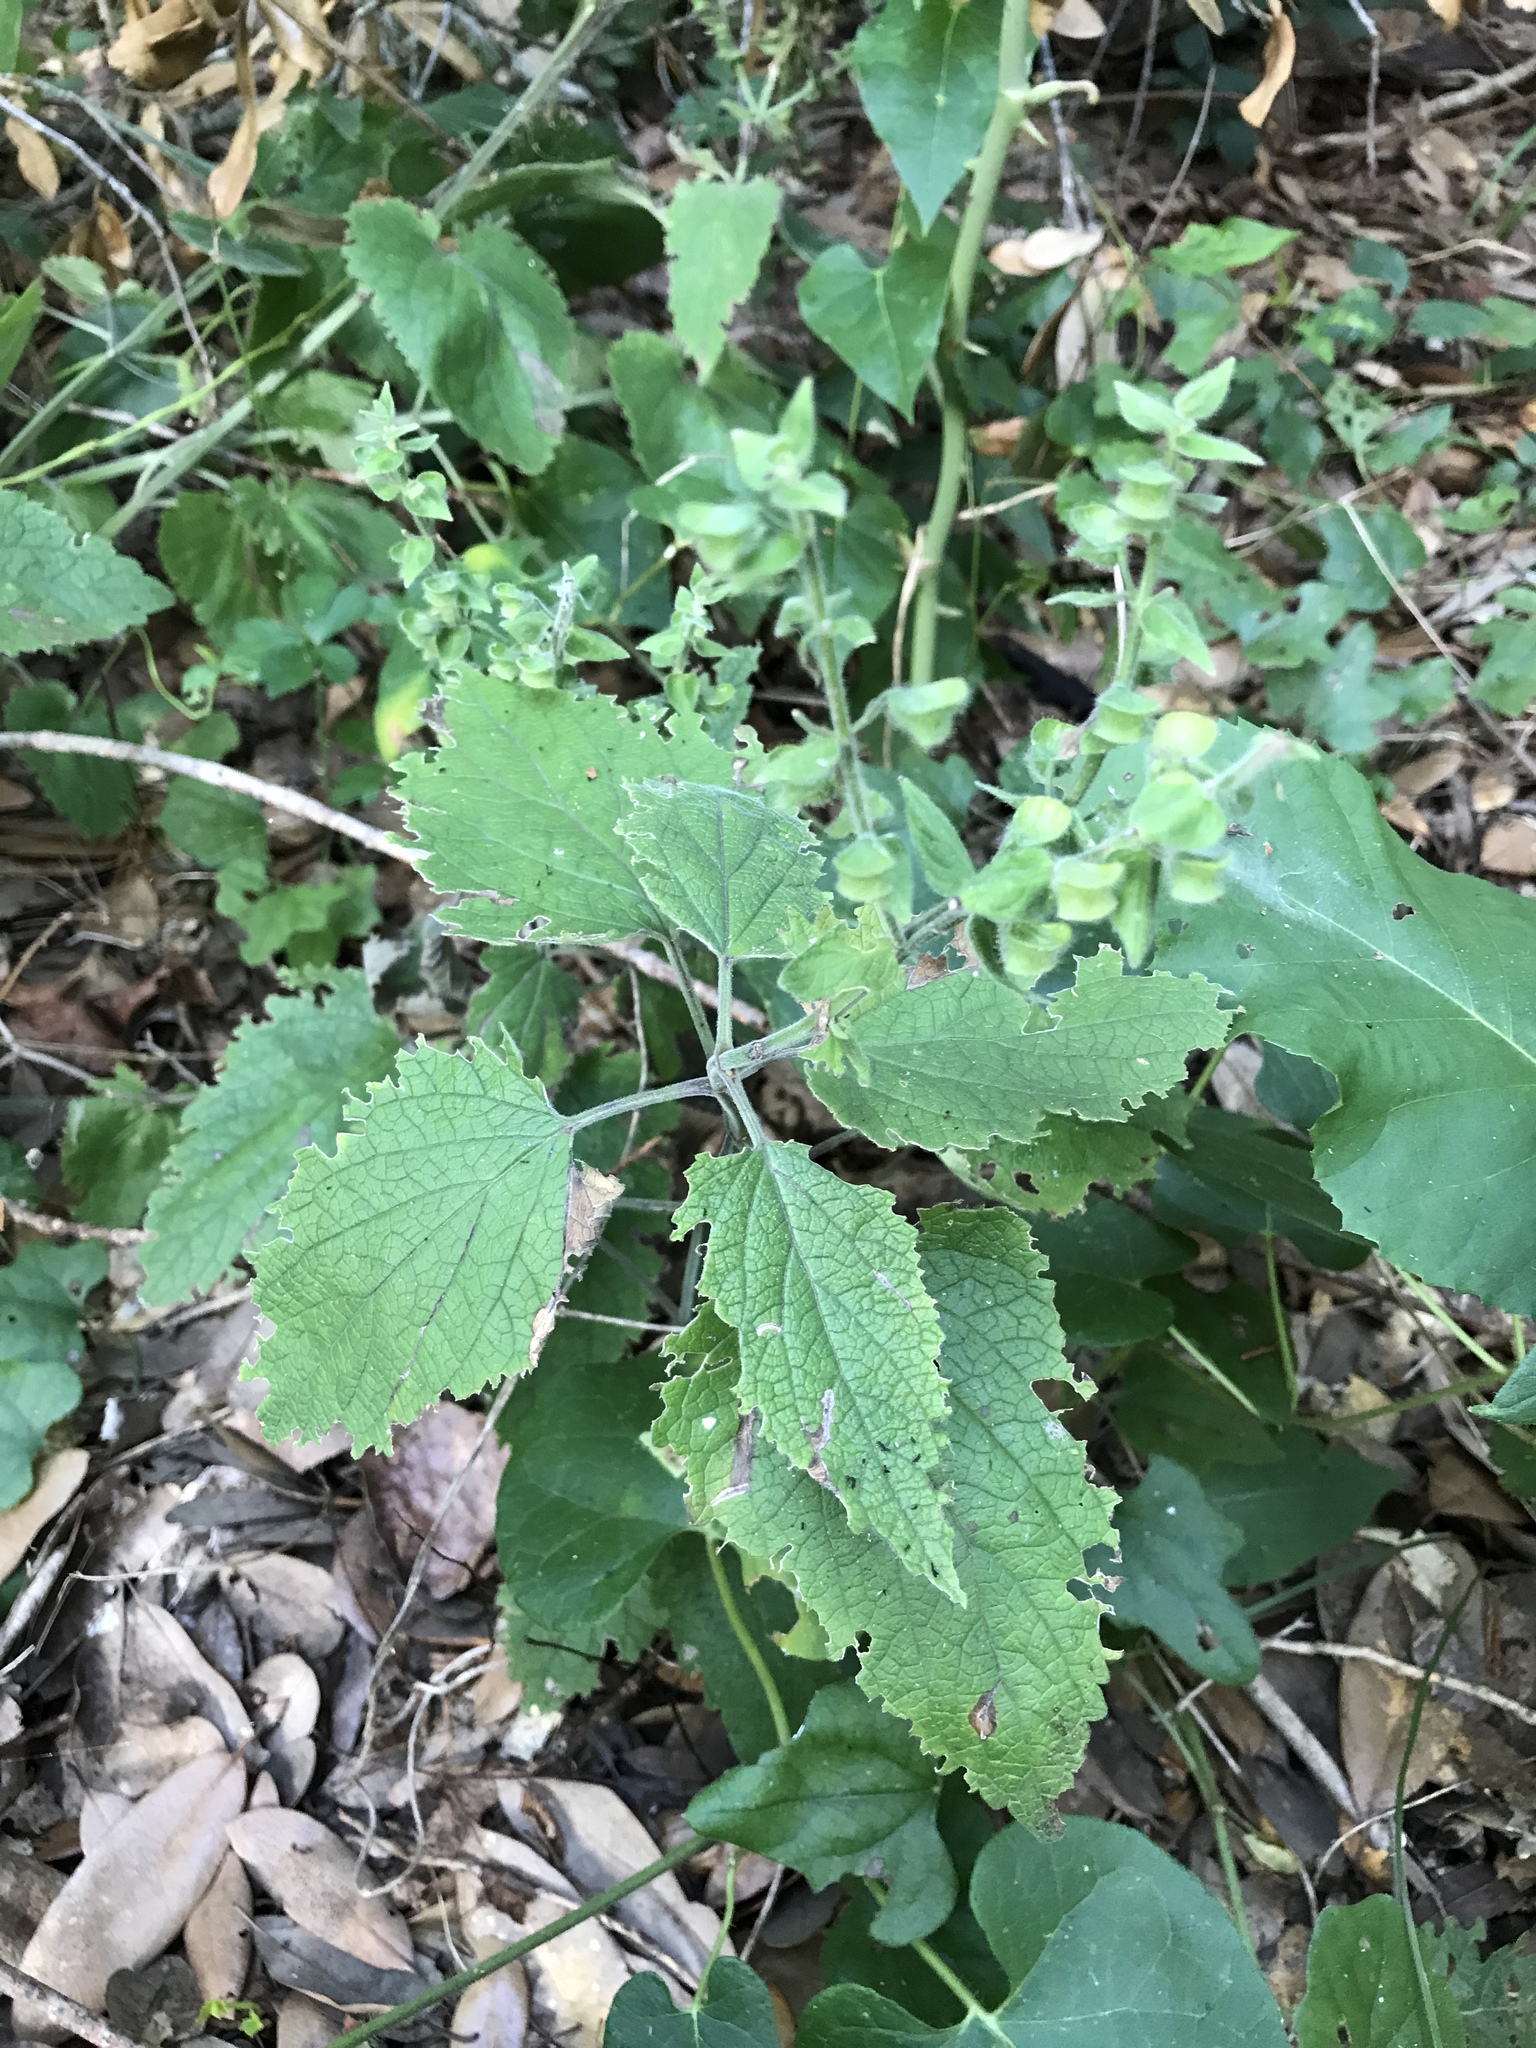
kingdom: Plantae
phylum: Tracheophyta
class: Magnoliopsida
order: Lamiales
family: Lamiaceae
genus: Scutellaria
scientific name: Scutellaria ovata
